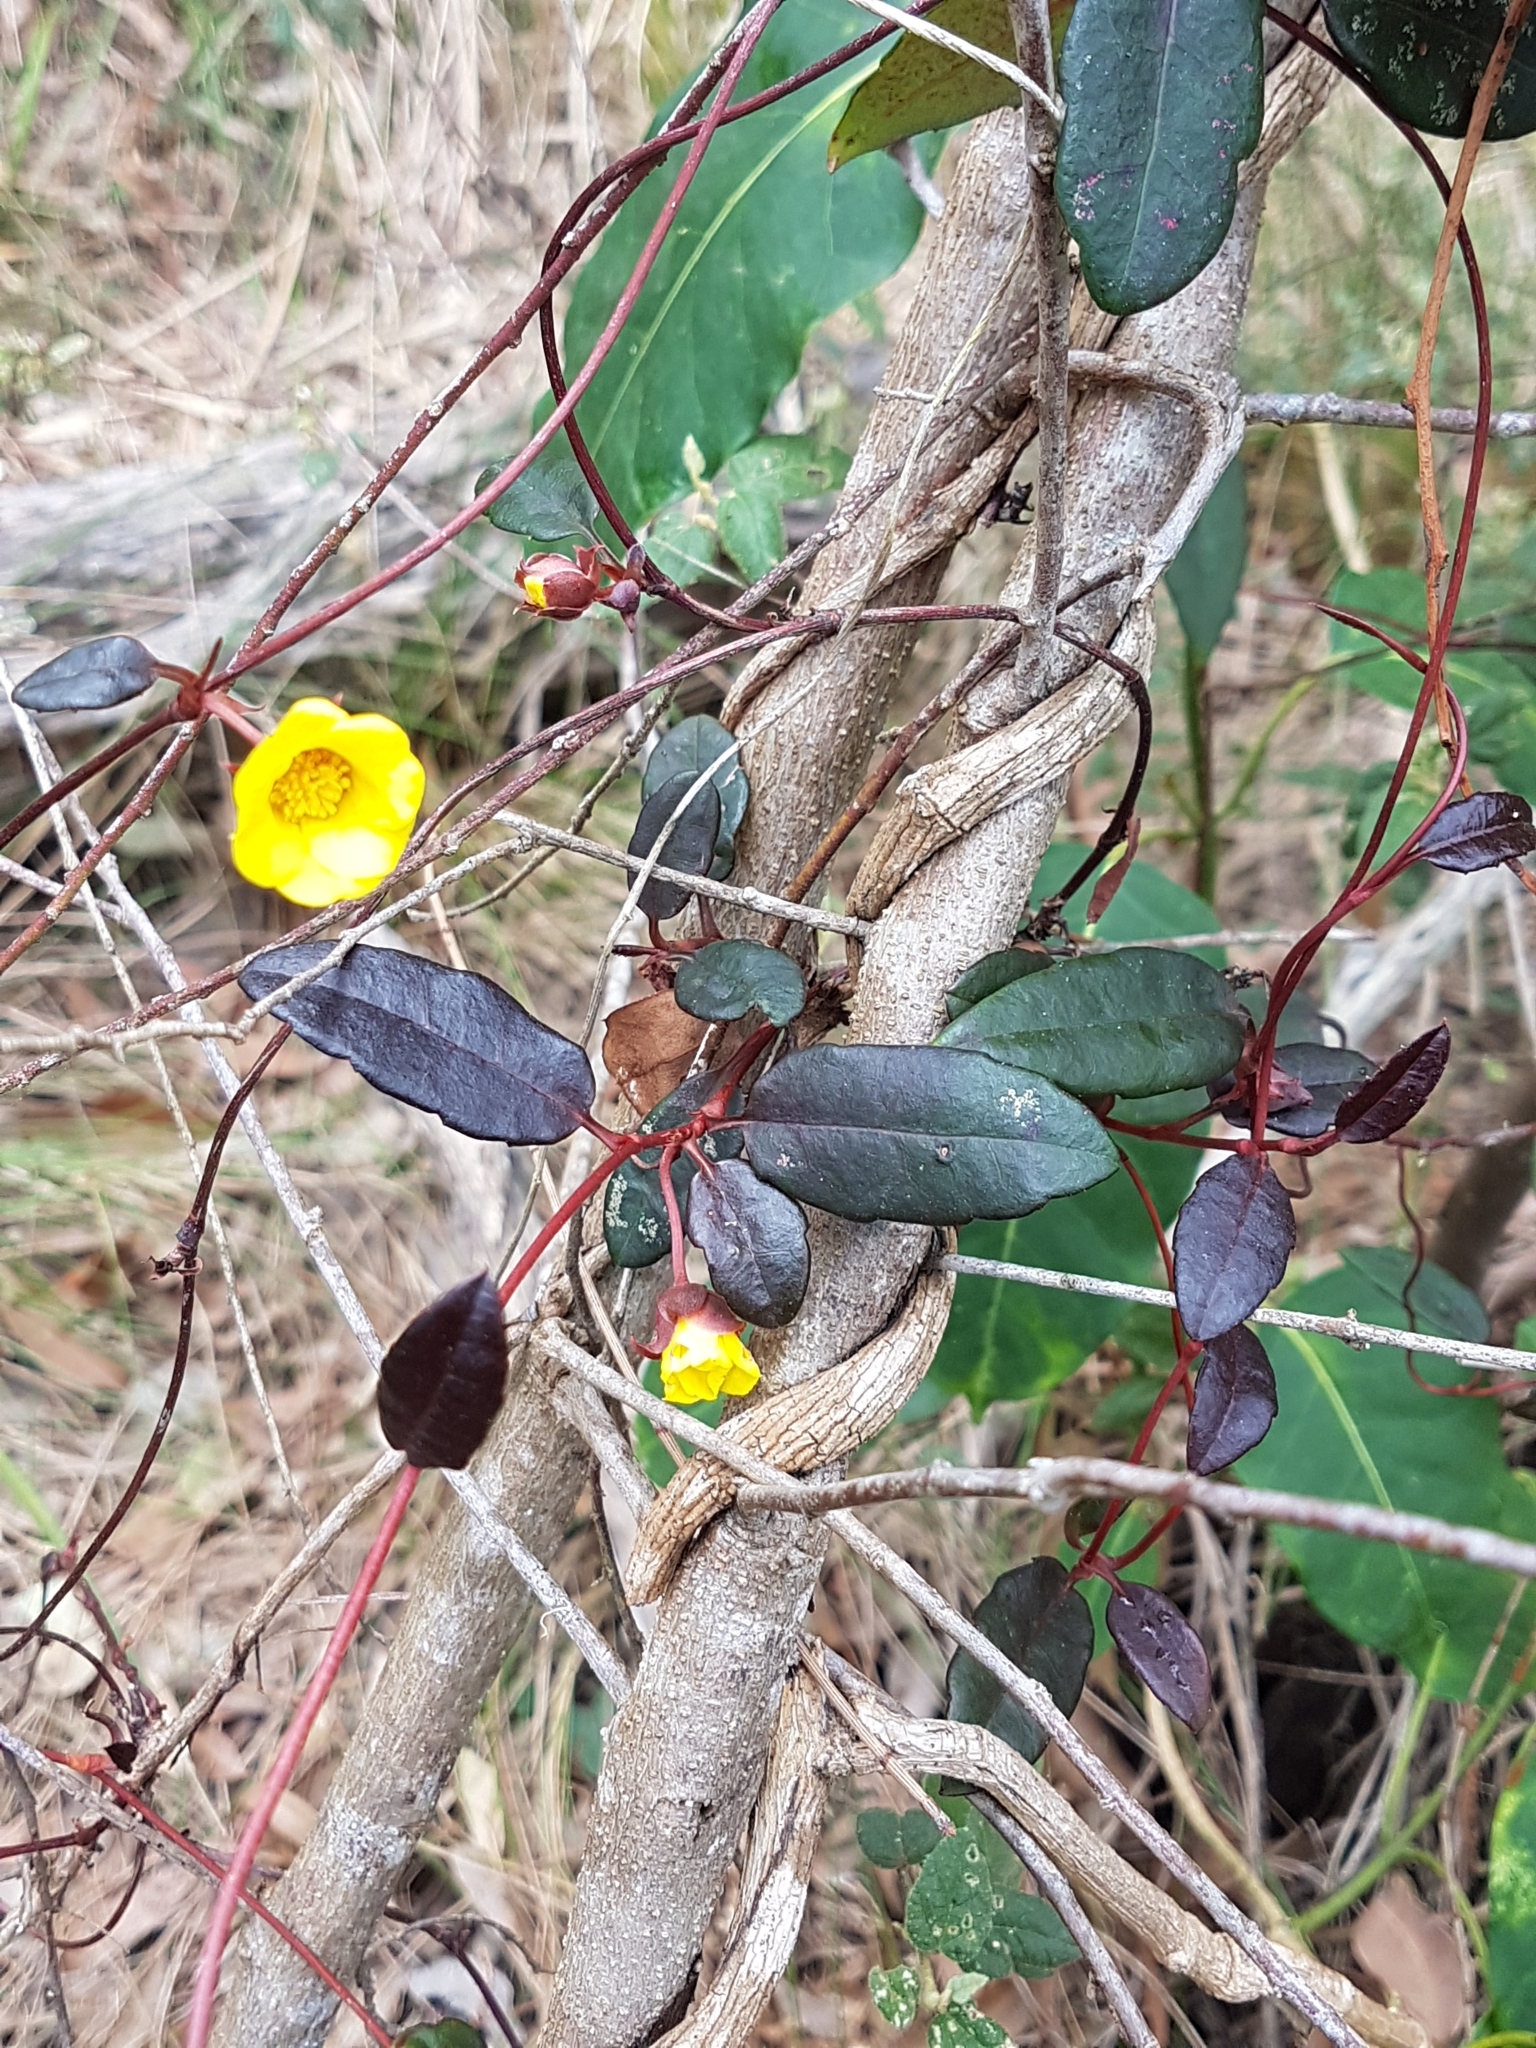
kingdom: Plantae
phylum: Tracheophyta
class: Magnoliopsida
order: Dilleniales
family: Dilleniaceae
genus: Hibbertia
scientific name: Hibbertia dentata
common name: Trailing guinea-flower
